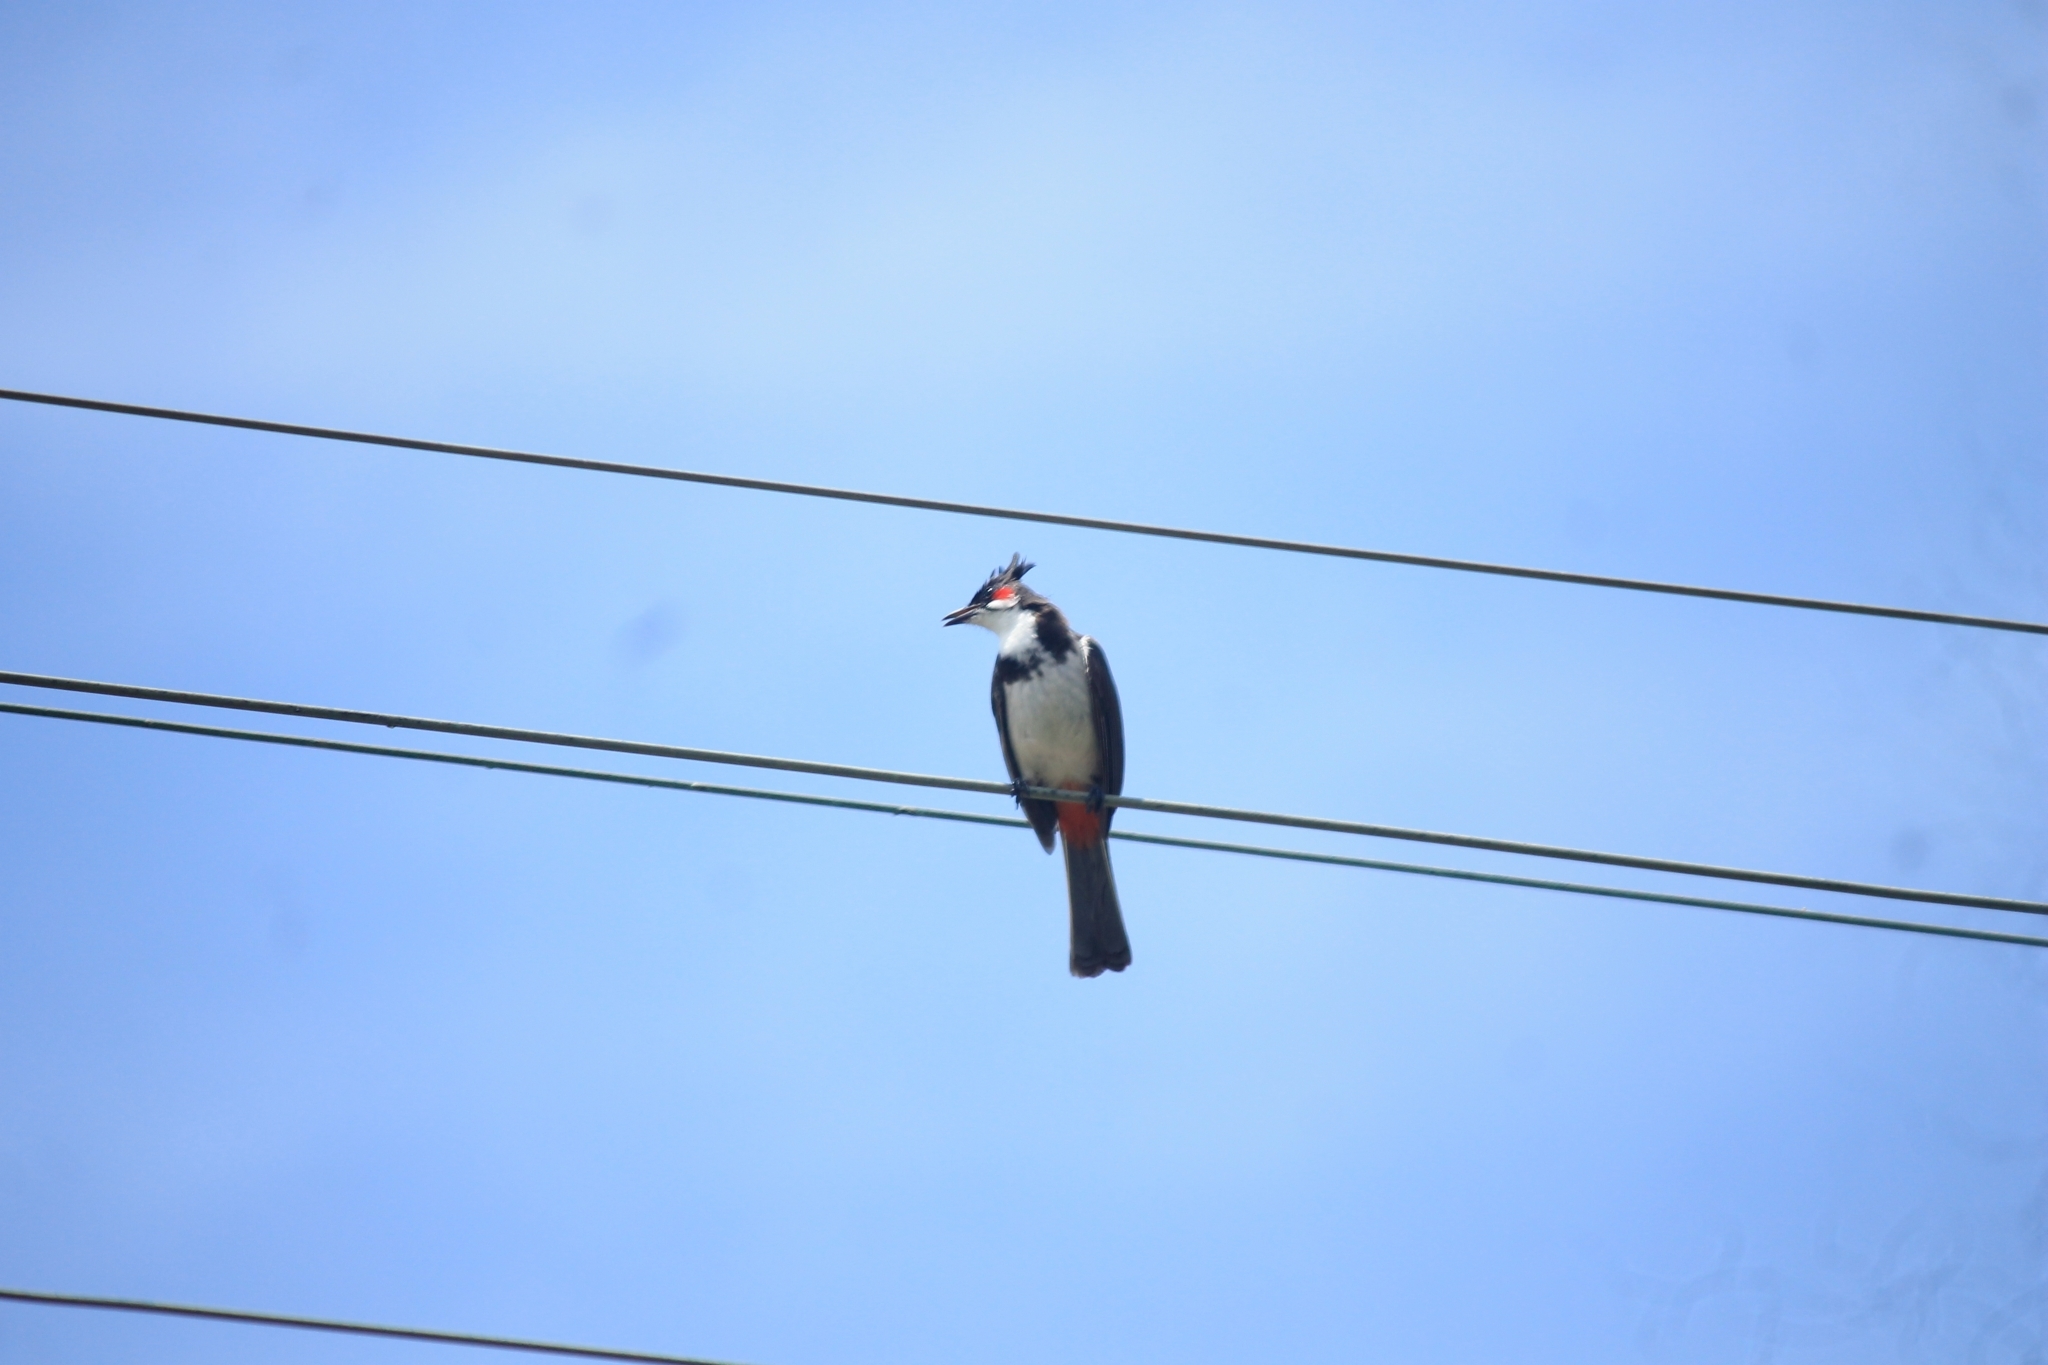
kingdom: Animalia
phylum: Chordata
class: Aves
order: Passeriformes
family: Pycnonotidae
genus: Pycnonotus
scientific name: Pycnonotus jocosus
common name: Red-whiskered bulbul
